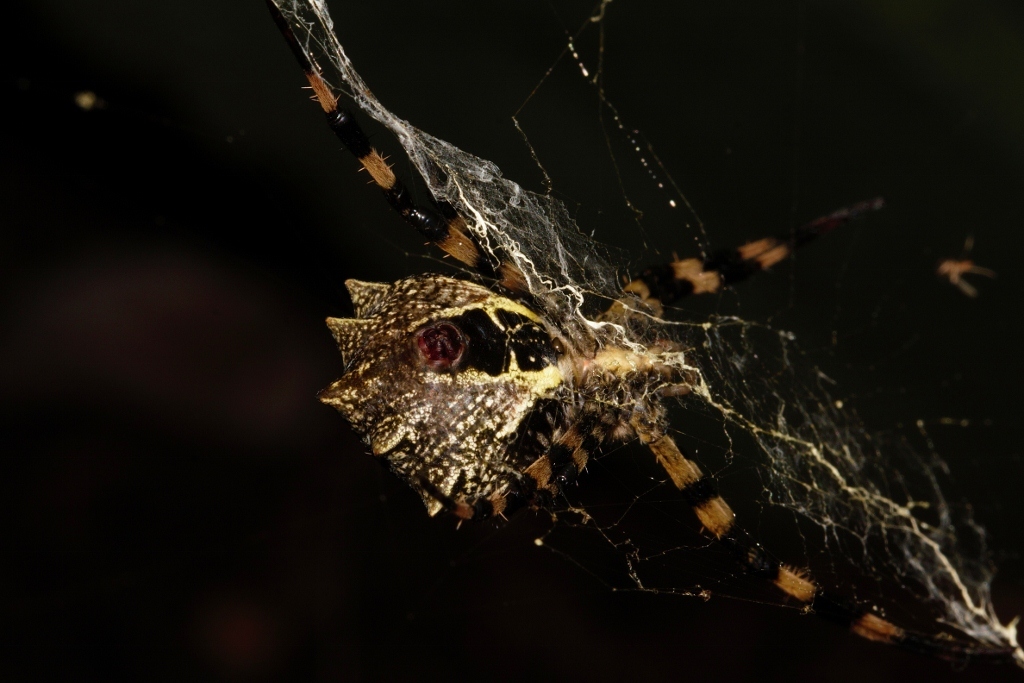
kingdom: Animalia
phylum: Arthropoda
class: Arachnida
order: Araneae
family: Araneidae
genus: Argiope
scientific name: Argiope levii
